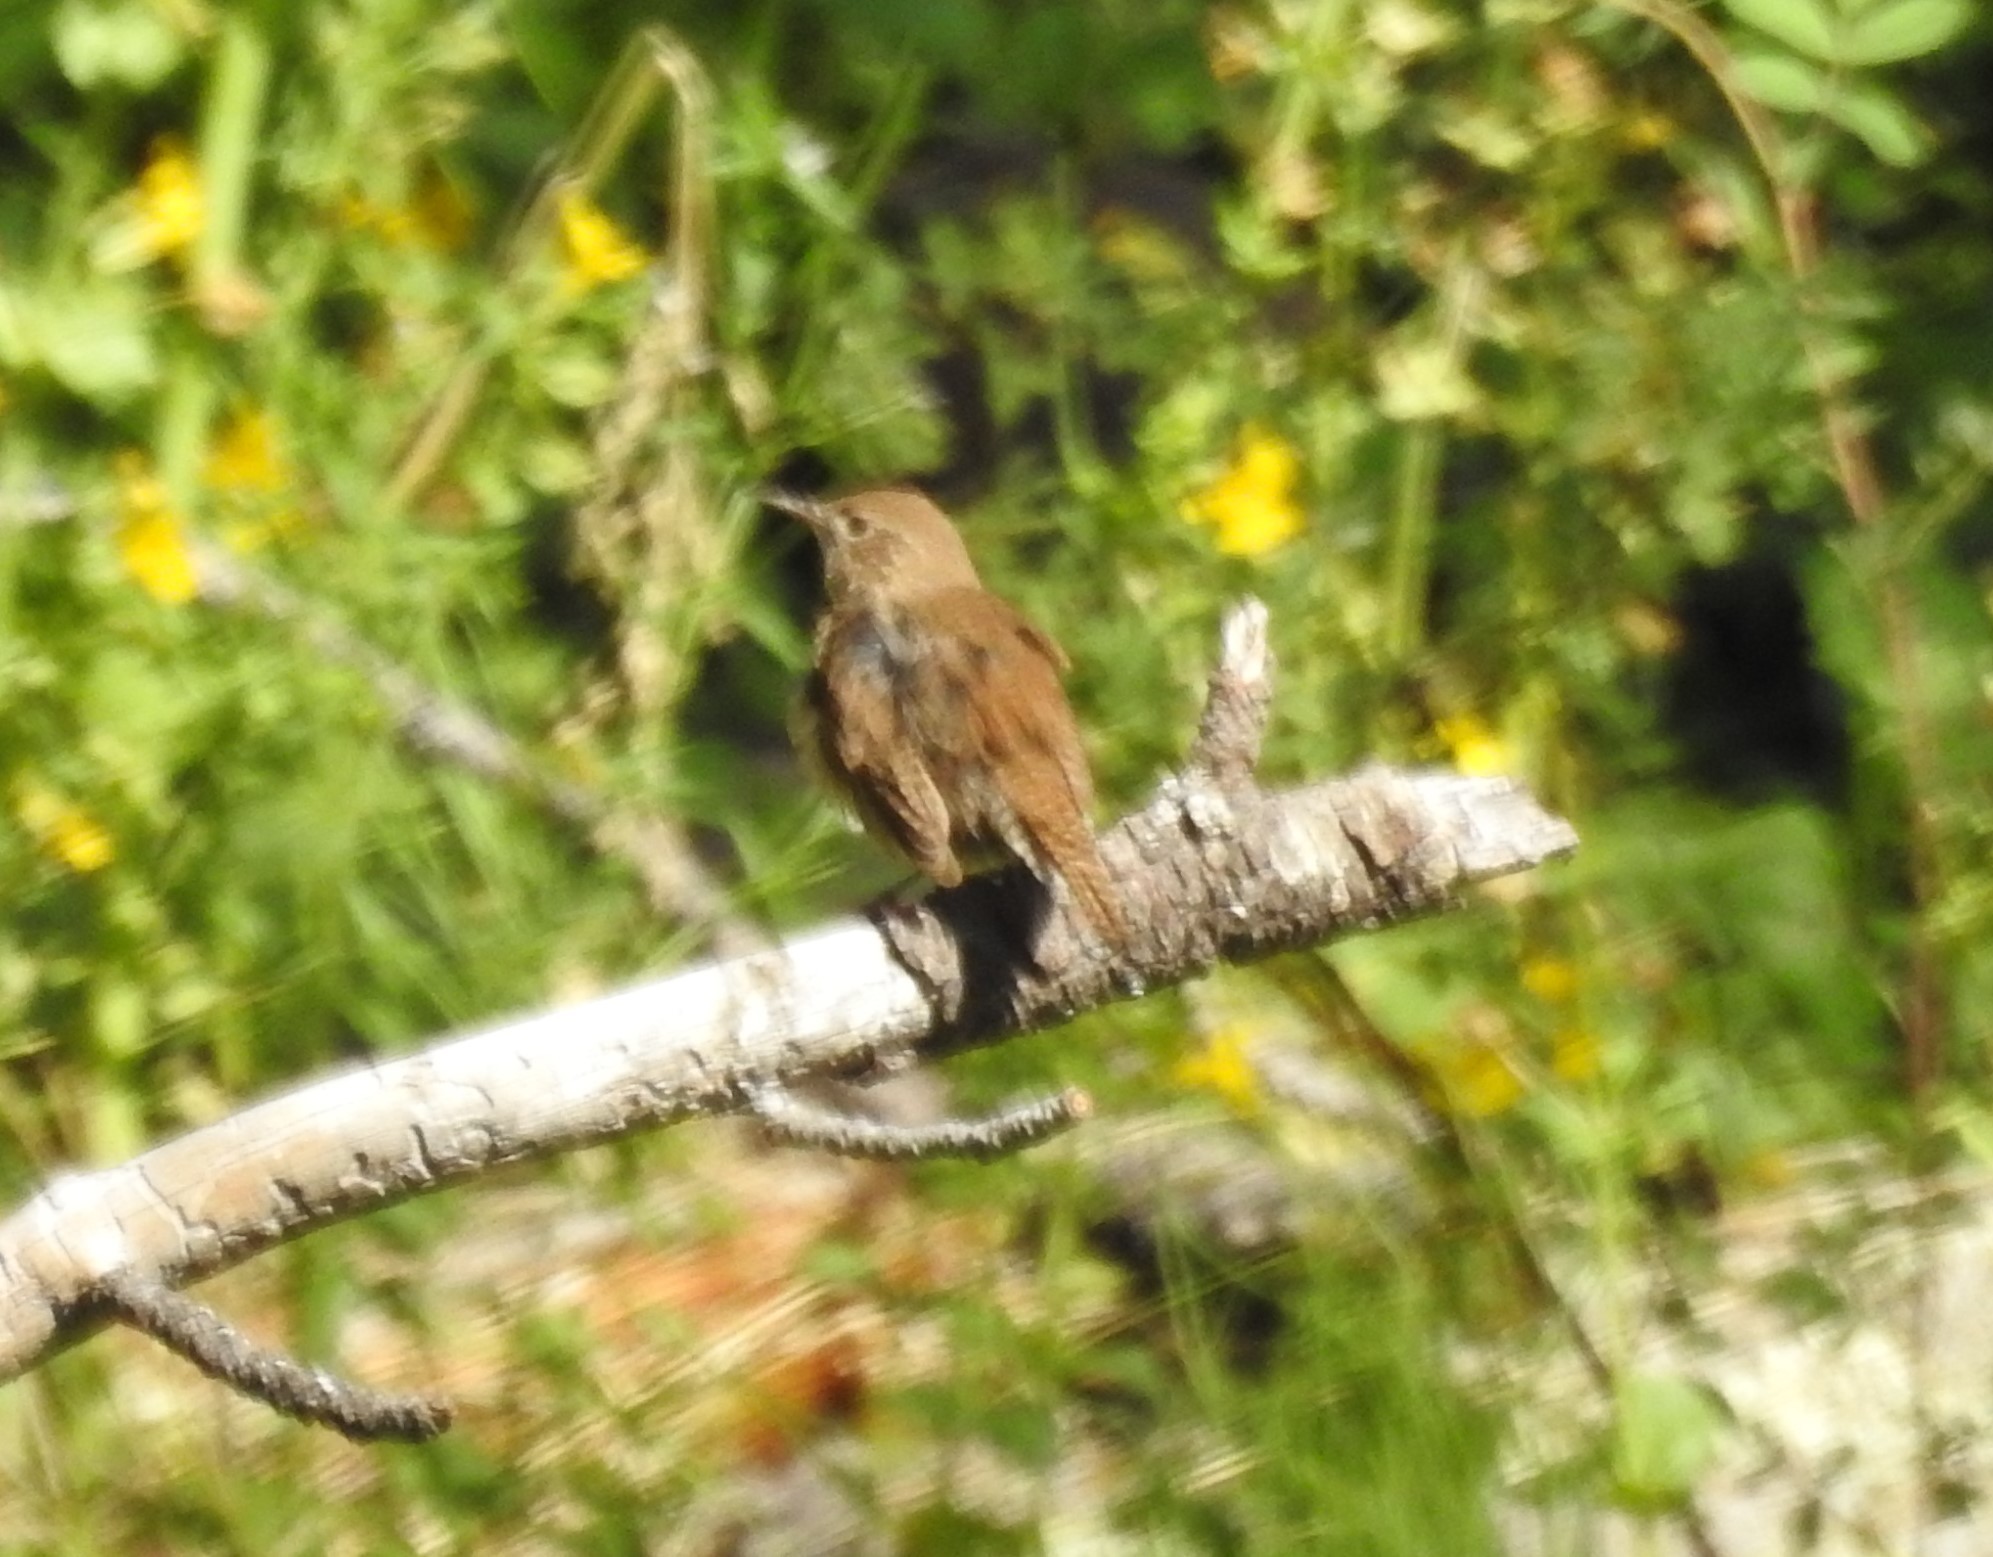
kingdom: Animalia
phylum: Chordata
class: Aves
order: Passeriformes
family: Troglodytidae
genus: Troglodytes
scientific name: Troglodytes aedon
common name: House wren
